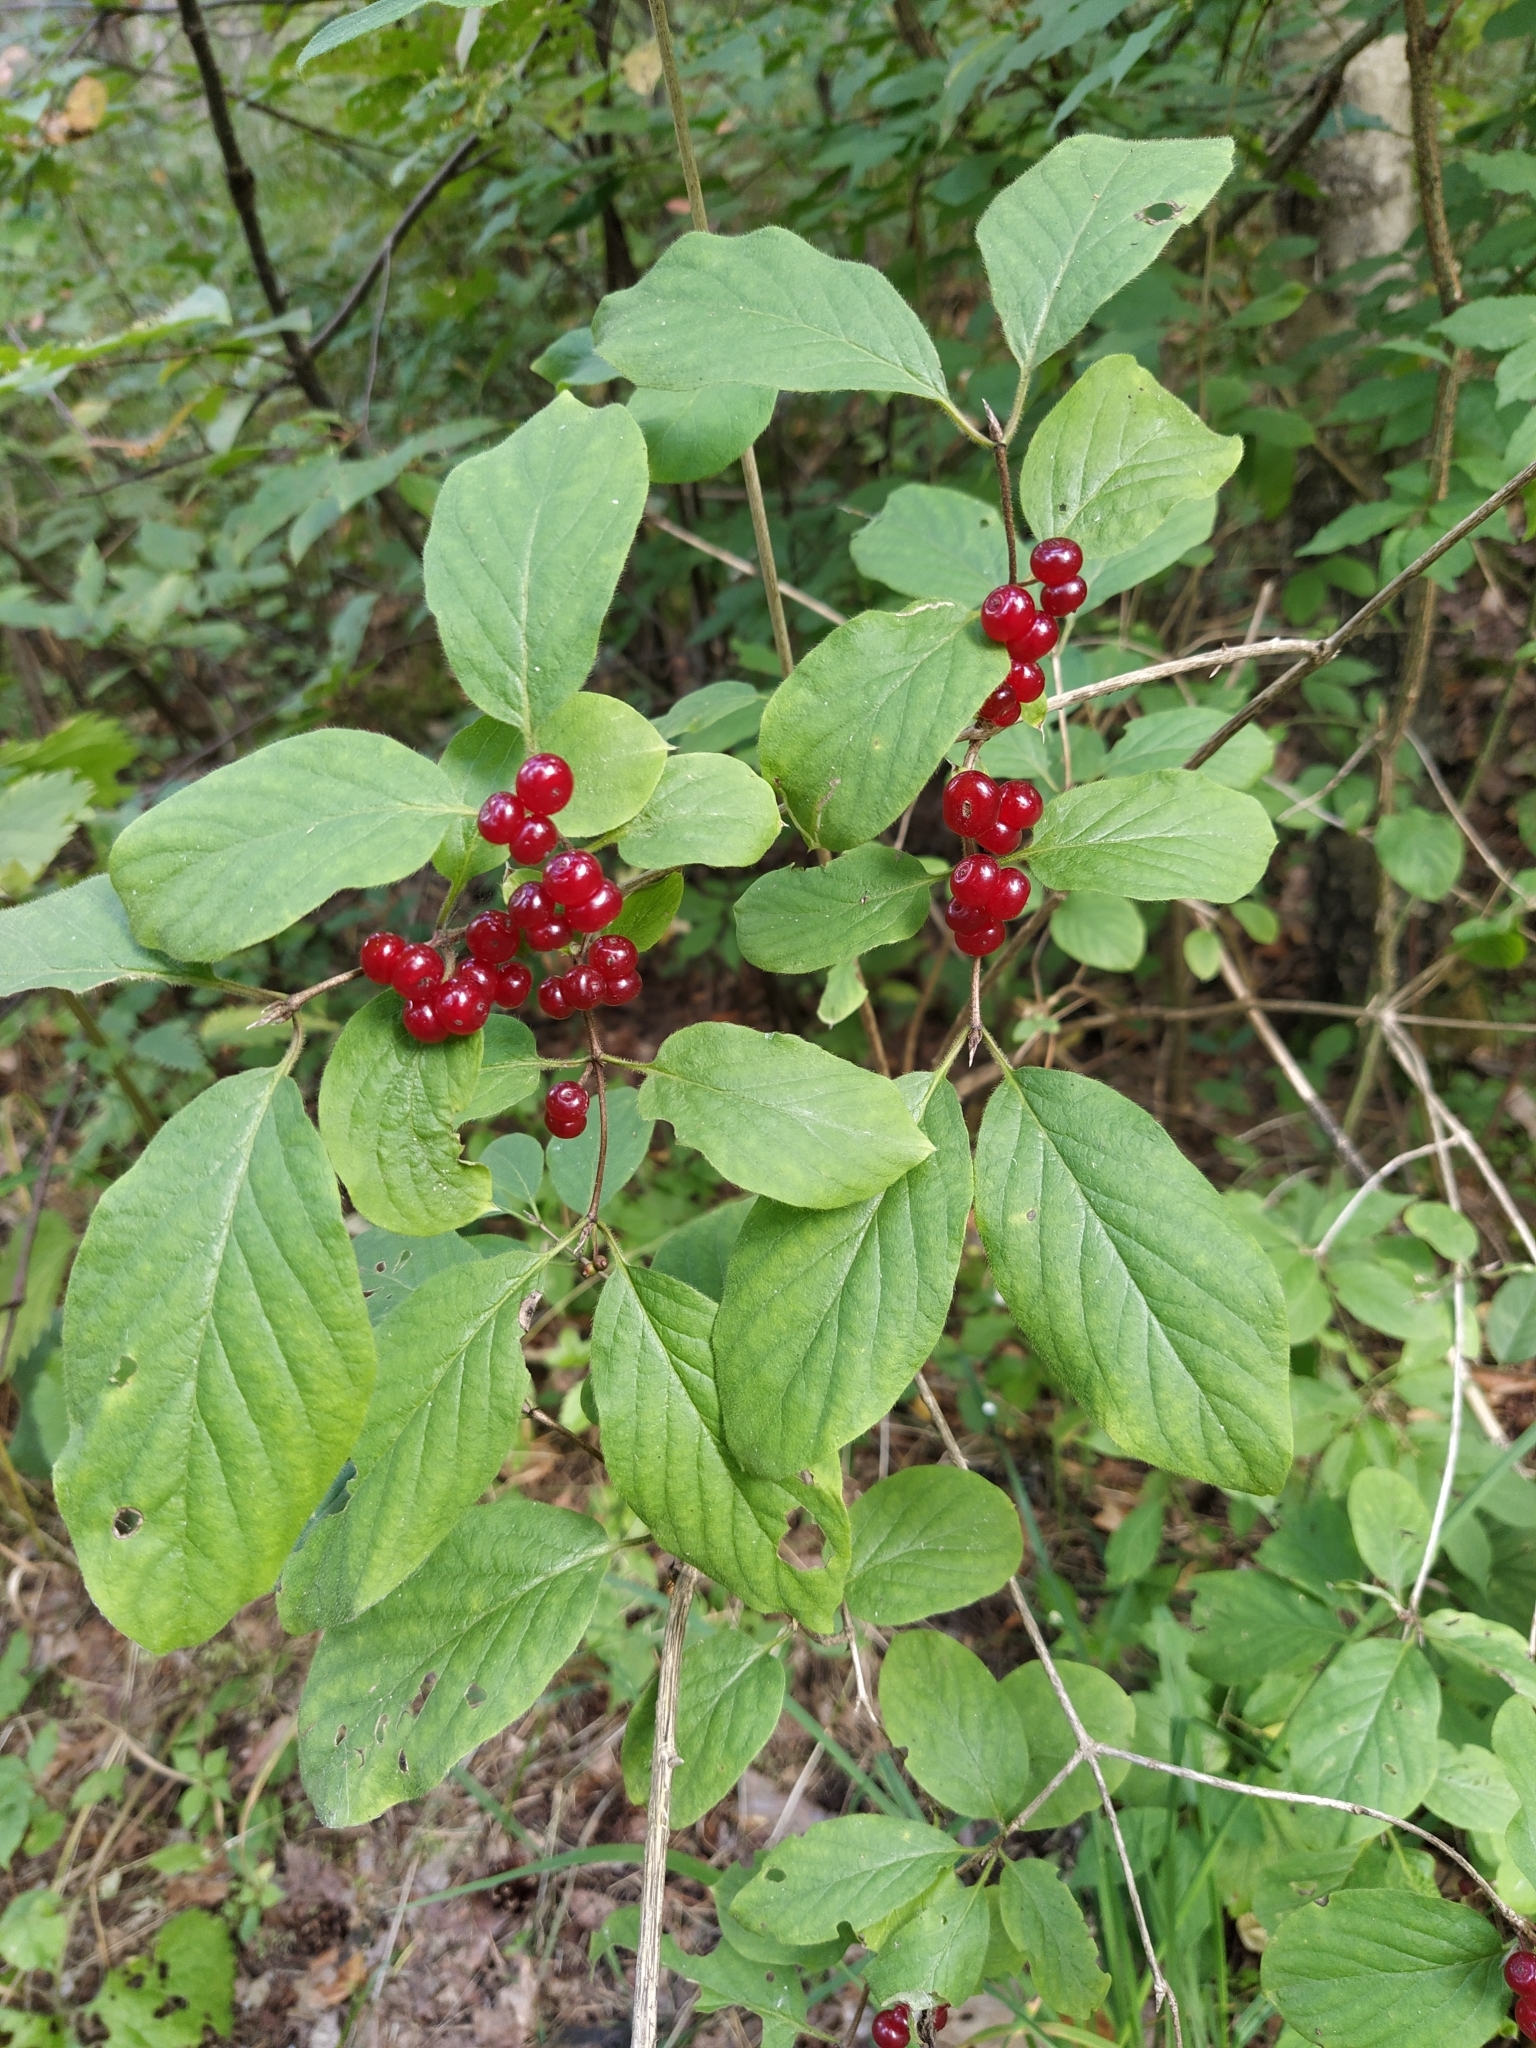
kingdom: Plantae
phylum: Tracheophyta
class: Magnoliopsida
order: Dipsacales
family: Caprifoliaceae
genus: Lonicera
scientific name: Lonicera xylosteum
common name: Fly honeysuckle
